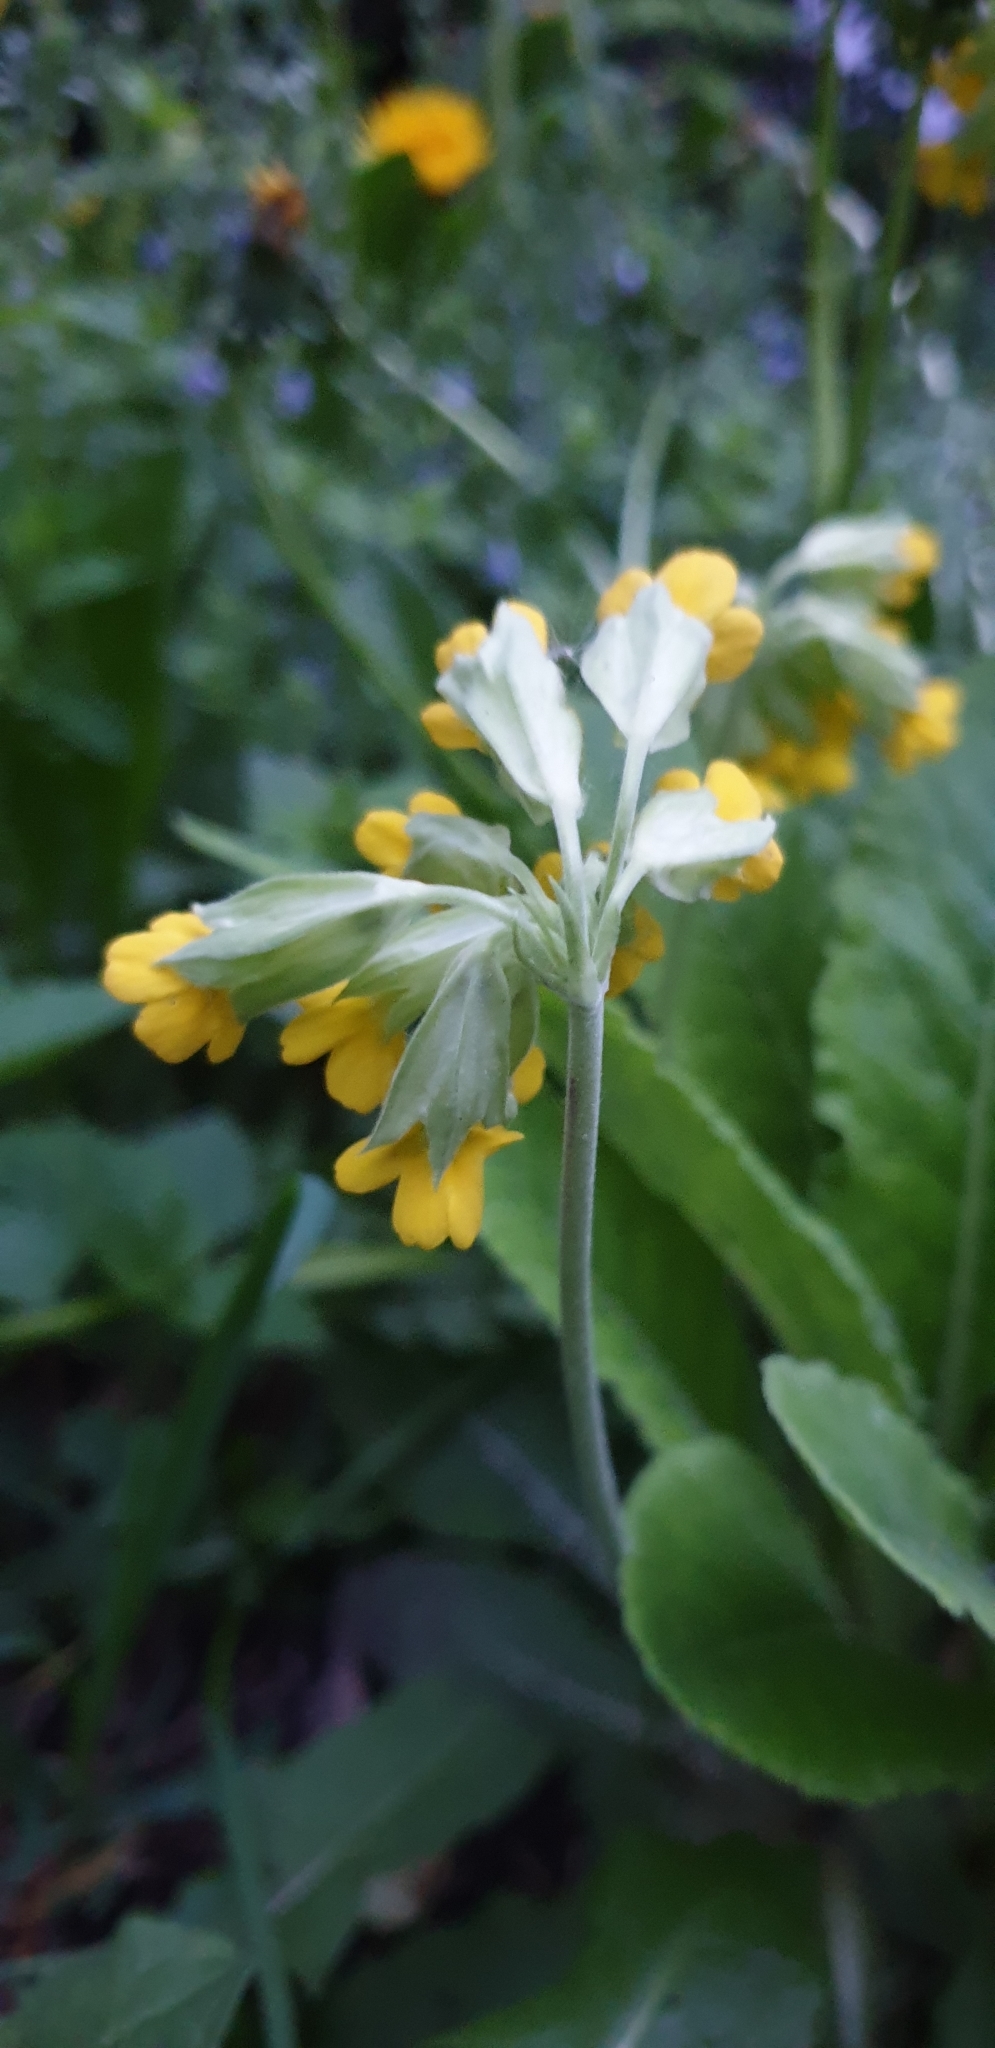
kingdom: Plantae
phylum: Tracheophyta
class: Magnoliopsida
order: Ericales
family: Primulaceae
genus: Primula
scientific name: Primula veris
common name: Cowslip
